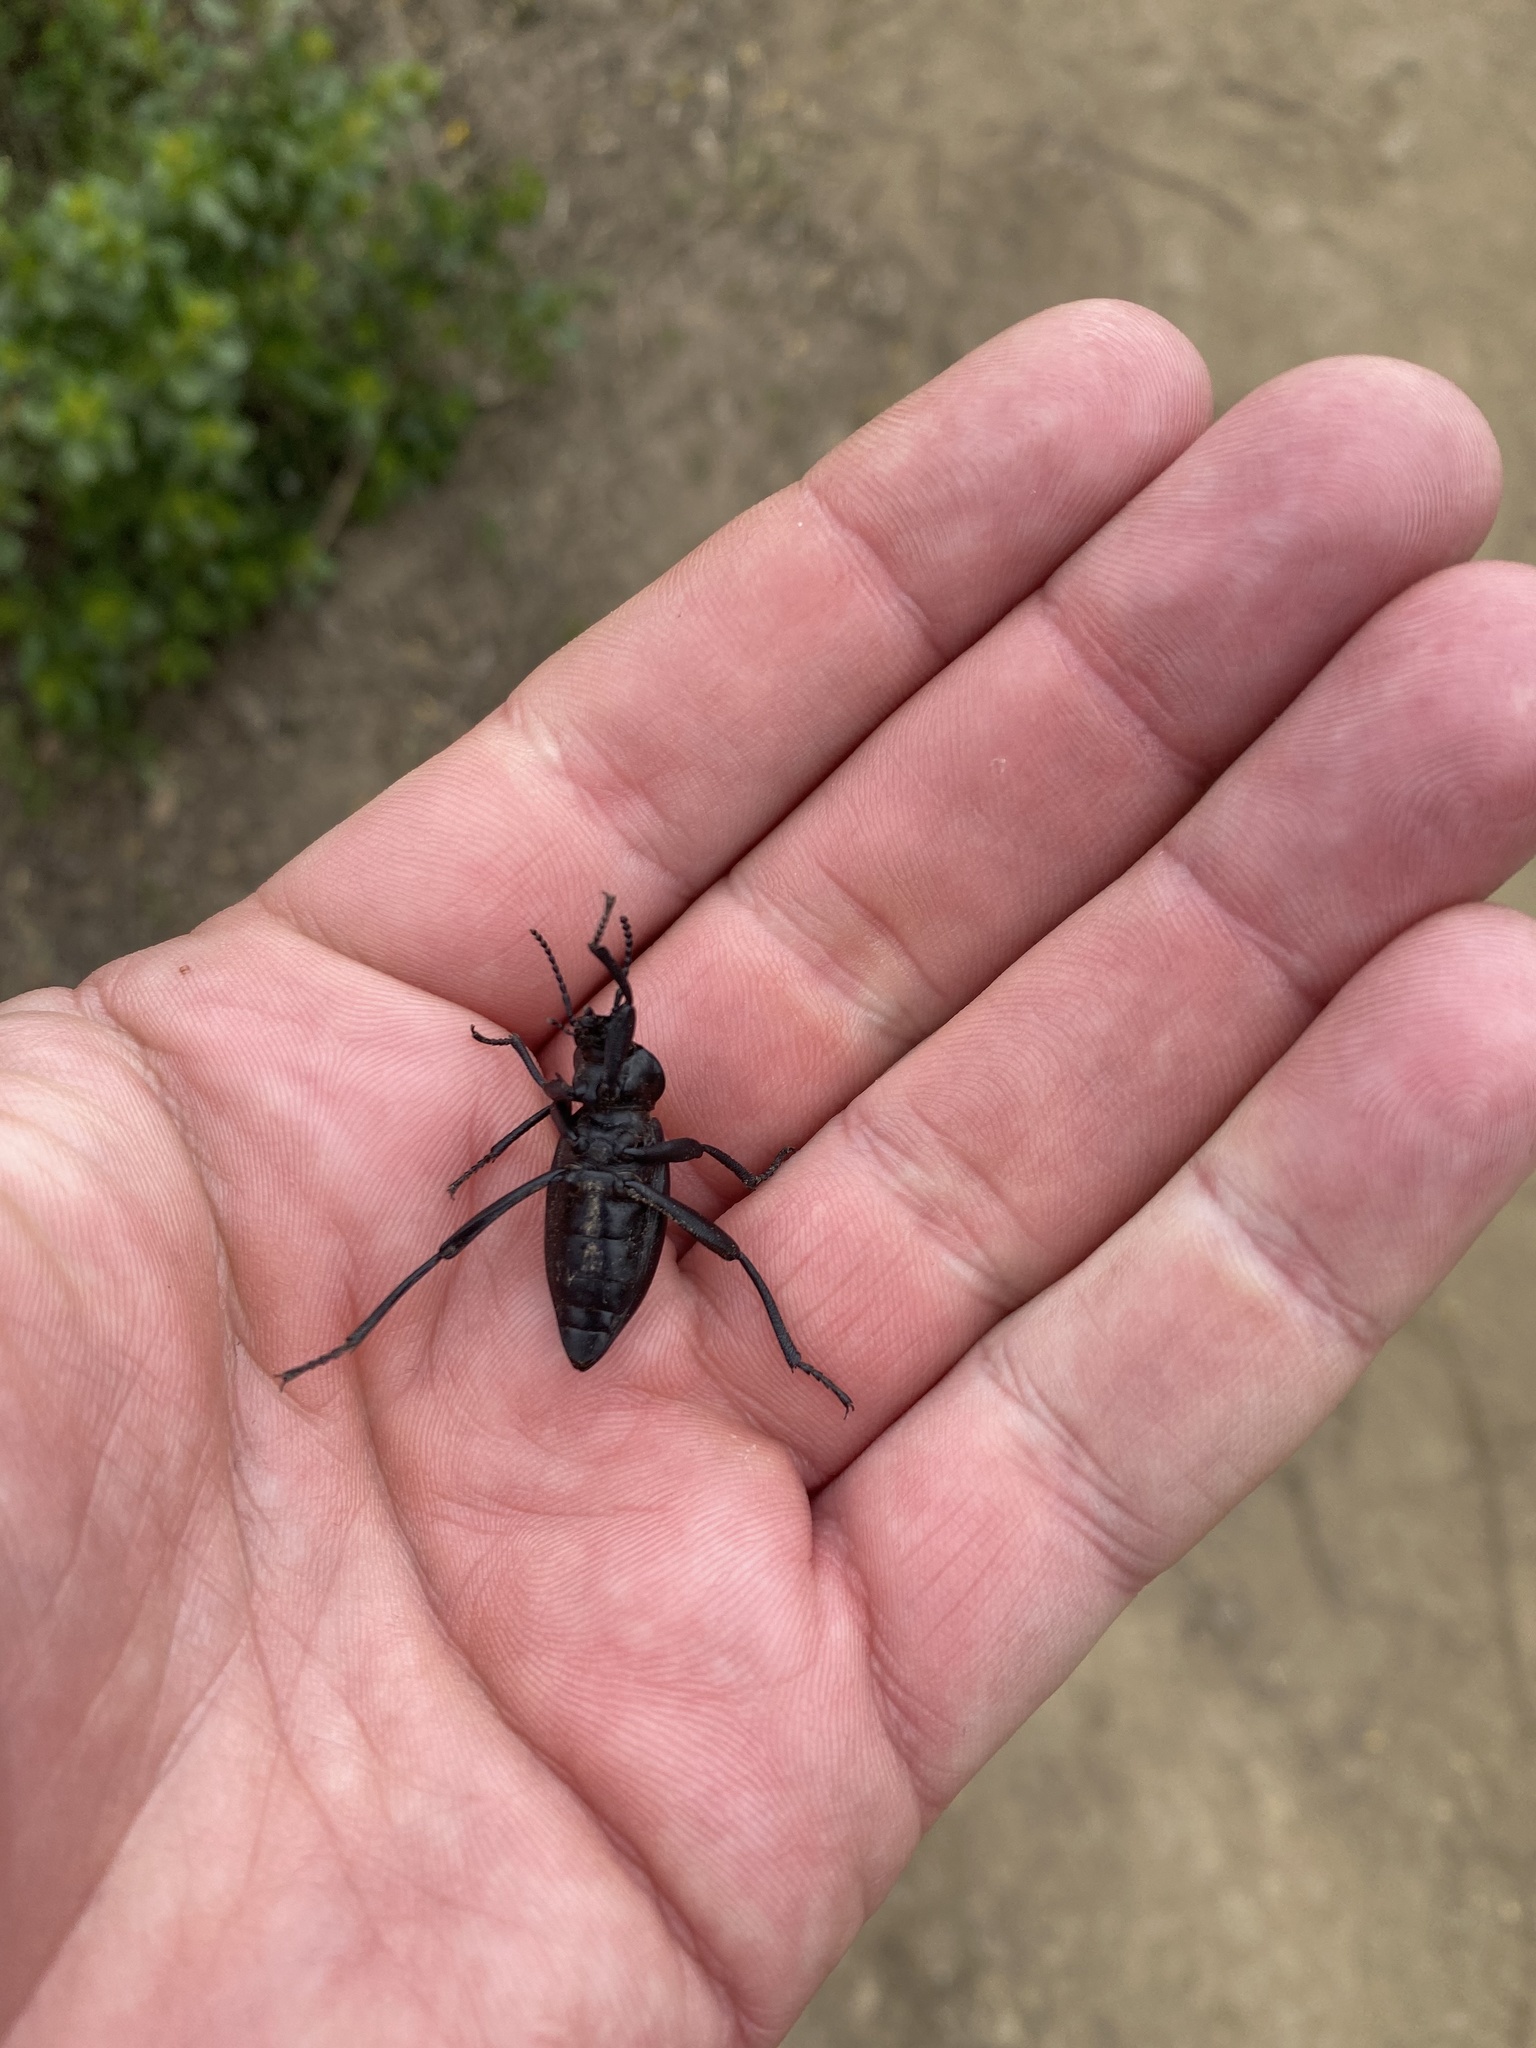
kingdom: Animalia
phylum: Arthropoda
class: Insecta
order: Coleoptera
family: Tenebrionidae
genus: Eleodes
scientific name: Eleodes dentipes
